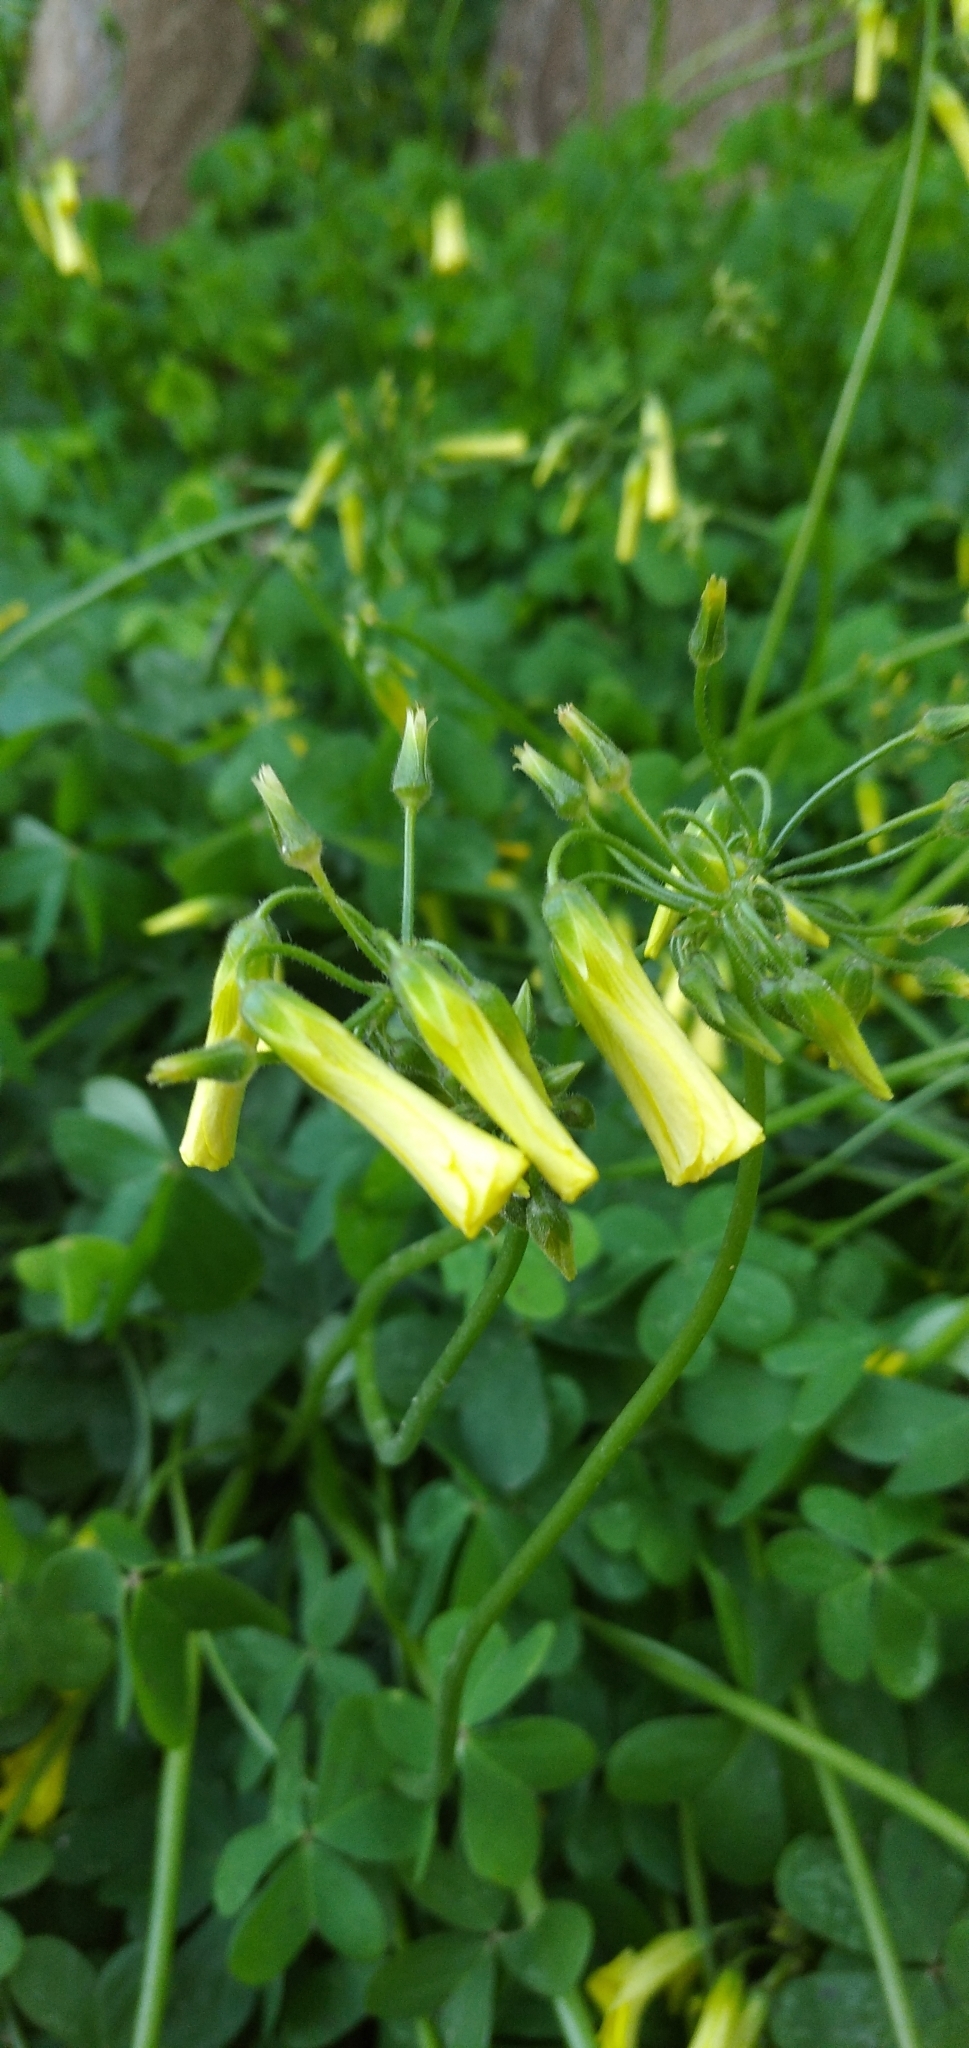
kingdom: Plantae
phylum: Tracheophyta
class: Magnoliopsida
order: Oxalidales
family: Oxalidaceae
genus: Oxalis
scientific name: Oxalis pes-caprae
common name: Bermuda-buttercup
